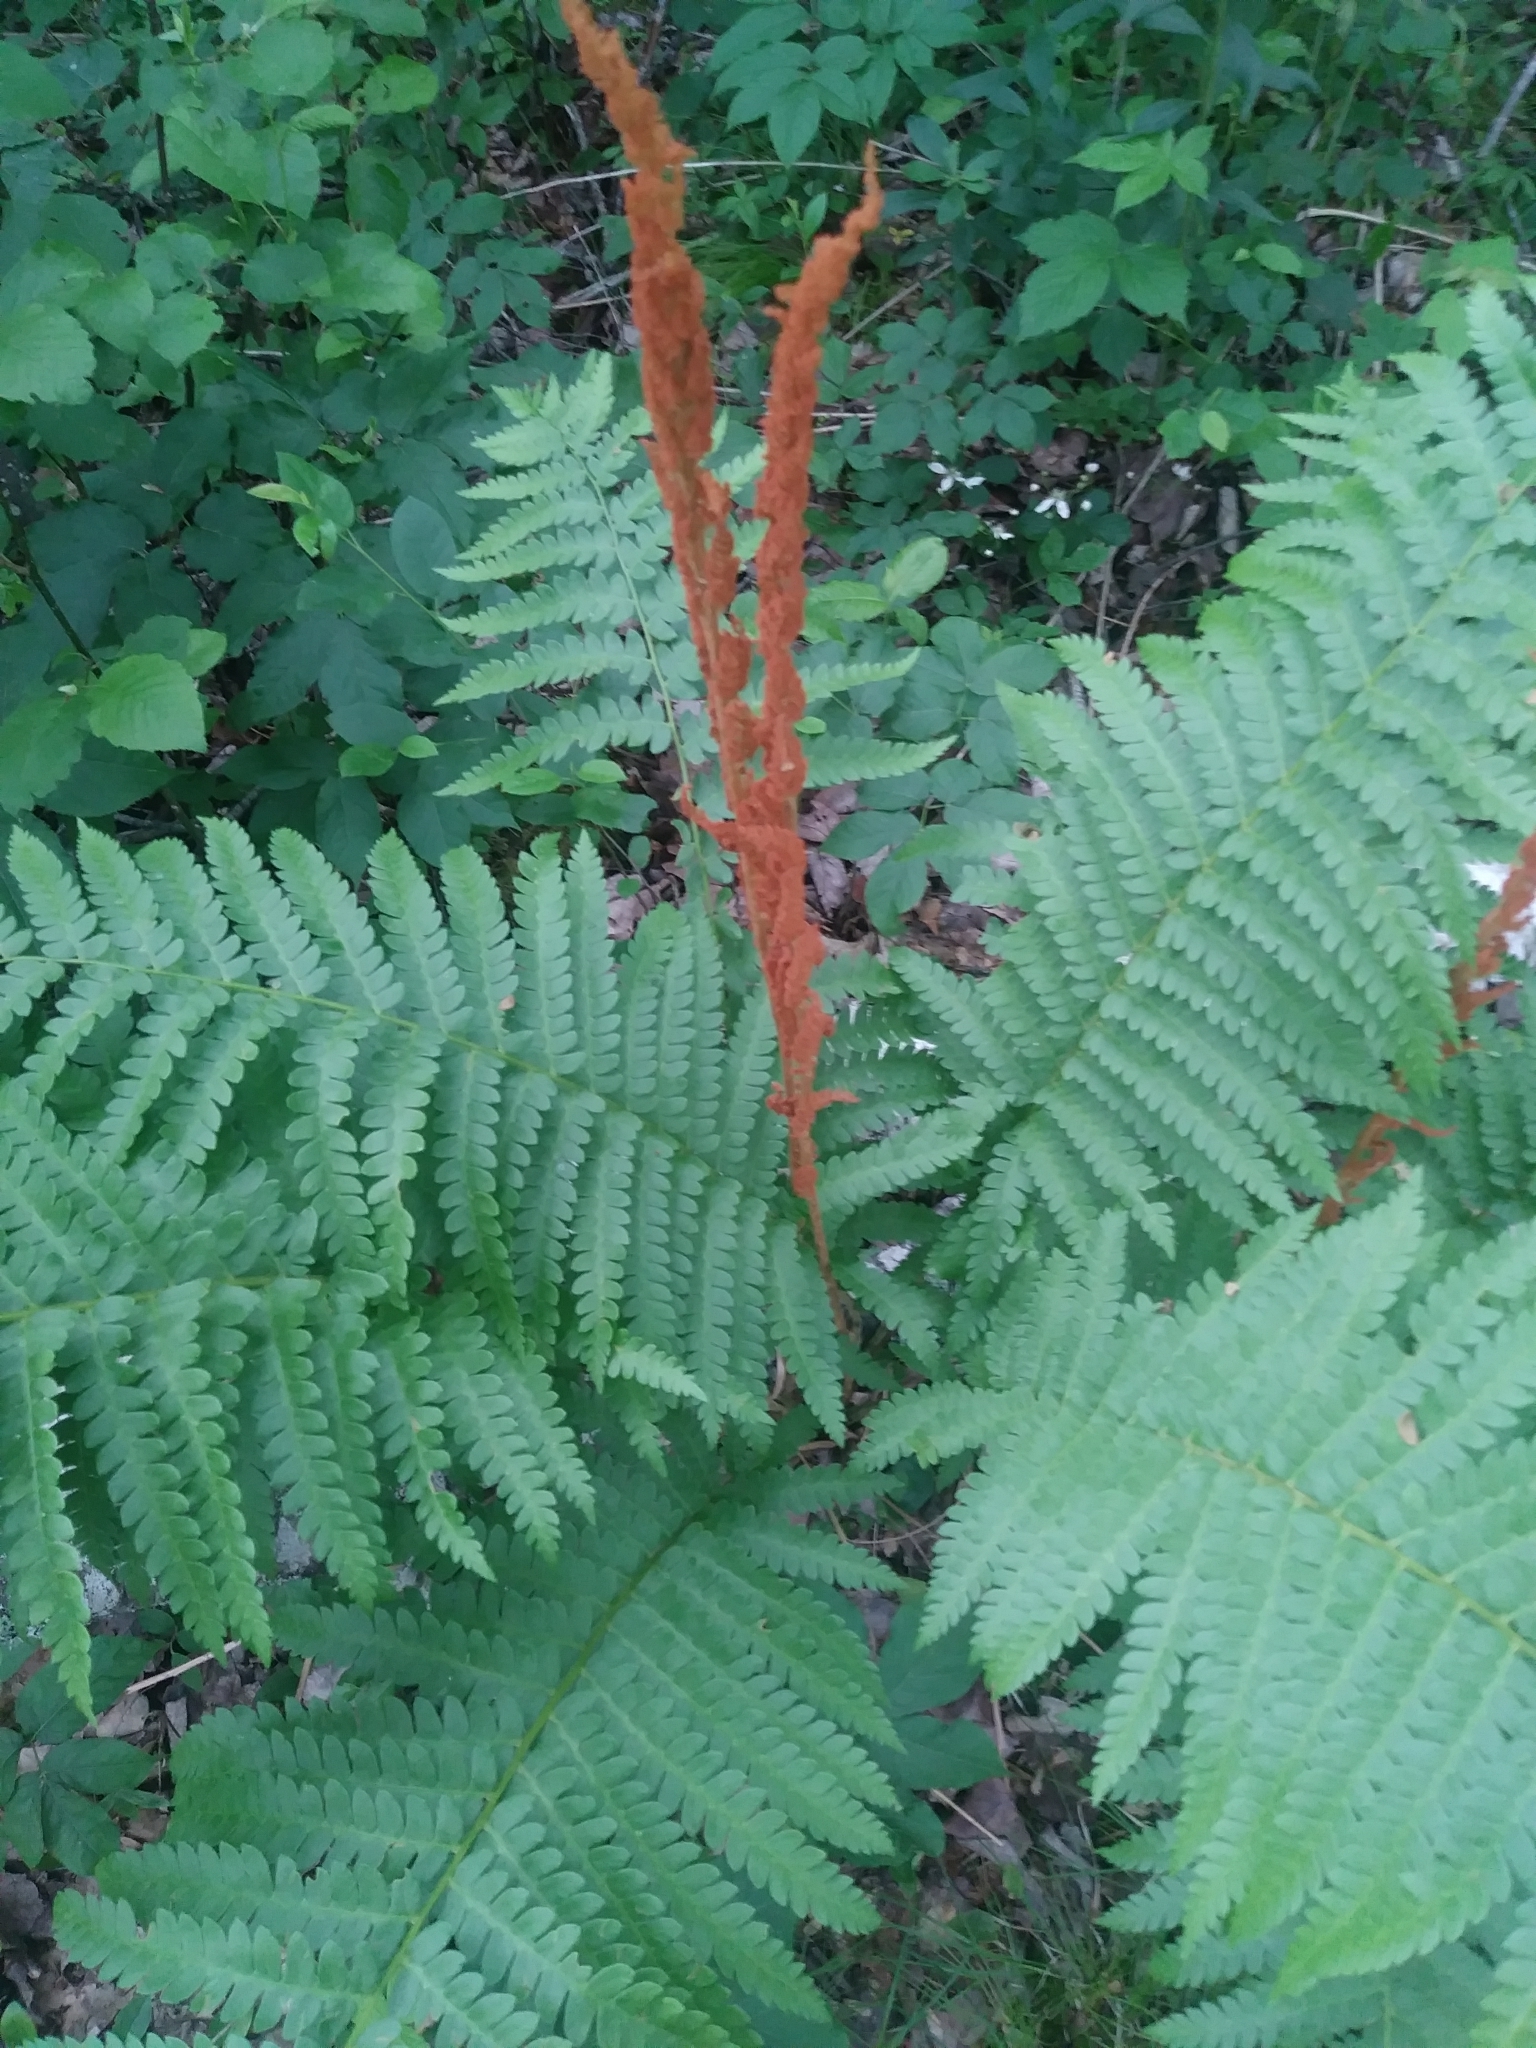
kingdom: Plantae
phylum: Tracheophyta
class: Polypodiopsida
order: Osmundales
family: Osmundaceae
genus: Osmundastrum
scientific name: Osmundastrum cinnamomeum
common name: Cinnamon fern
